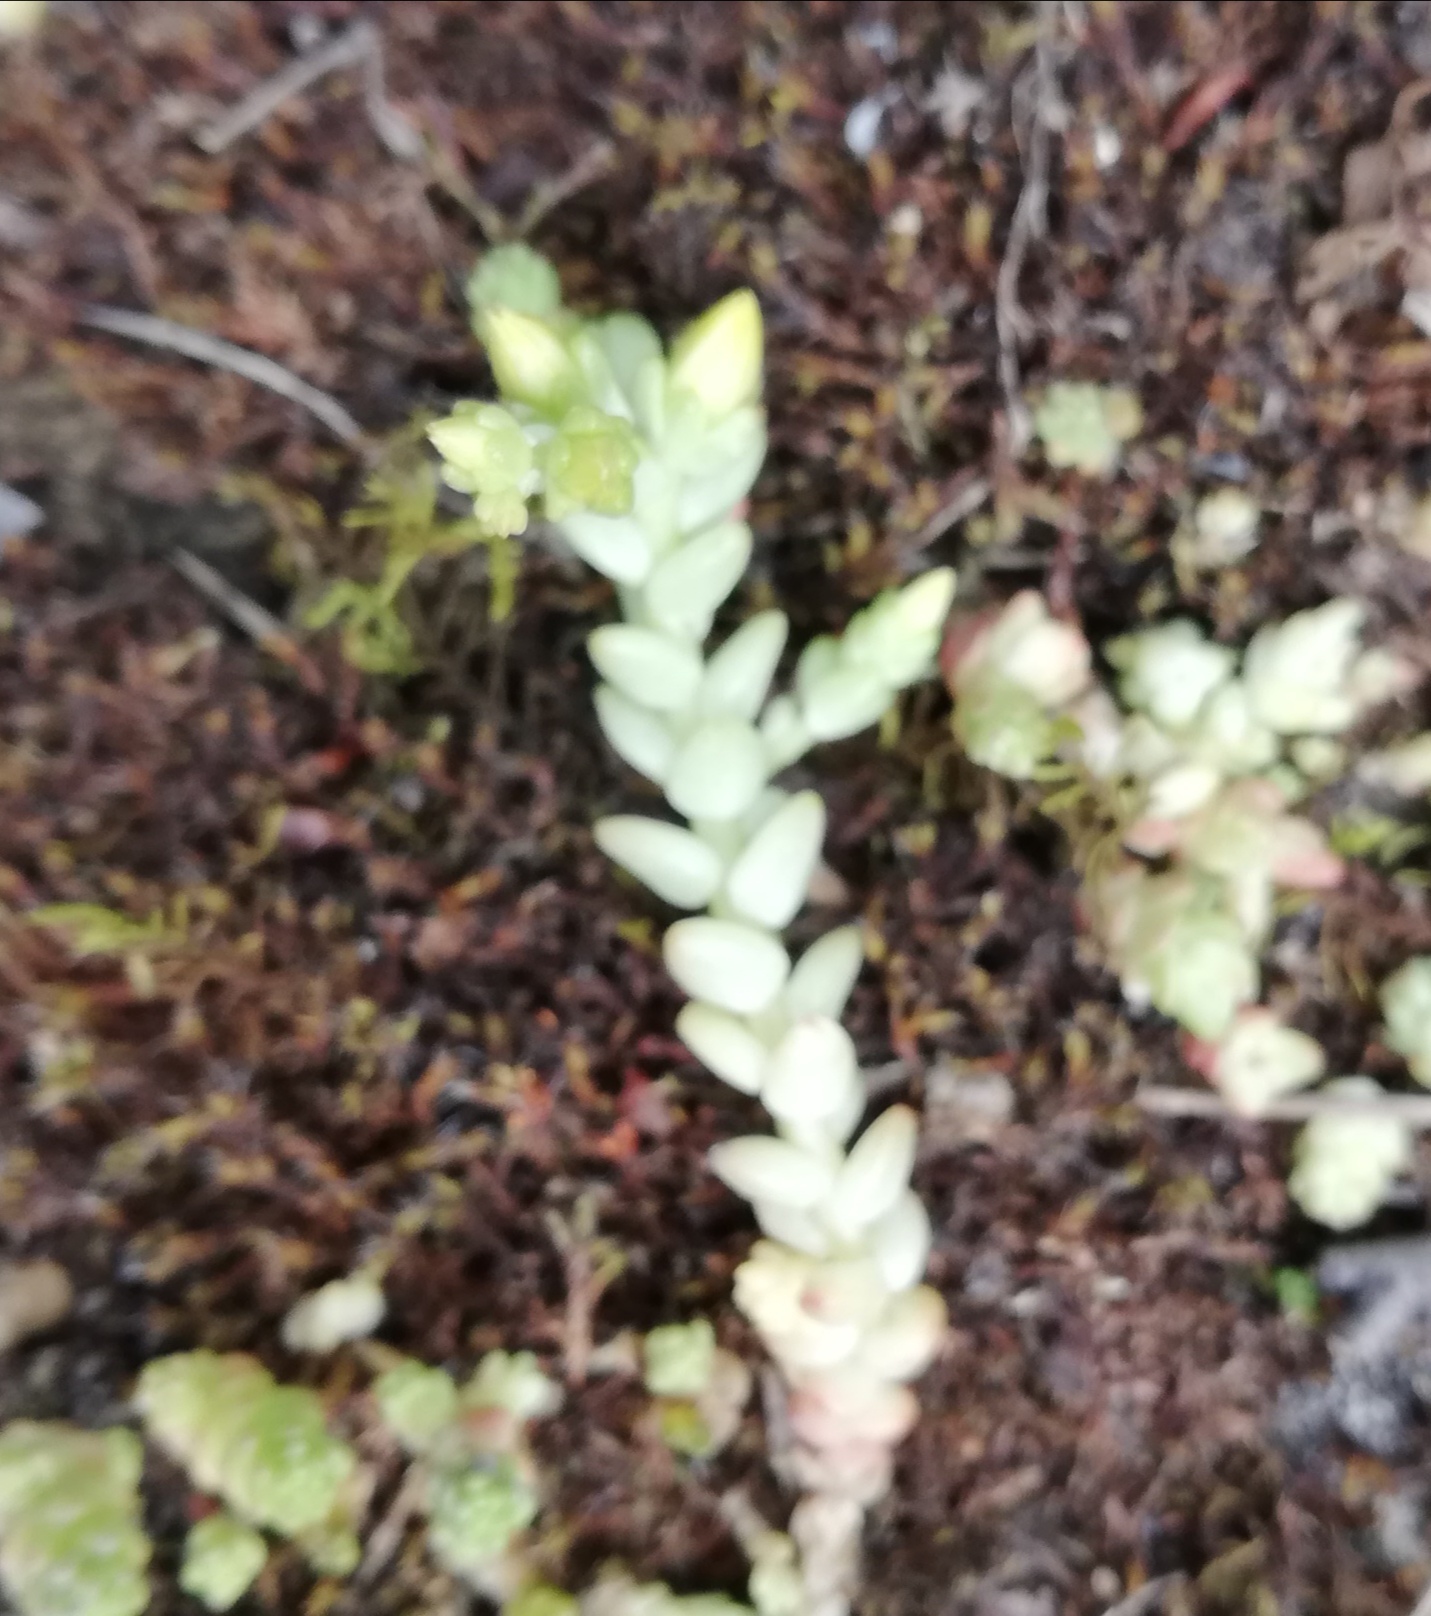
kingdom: Plantae
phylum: Tracheophyta
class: Magnoliopsida
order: Saxifragales
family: Crassulaceae
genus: Sedum
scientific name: Sedum acre
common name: Biting stonecrop
